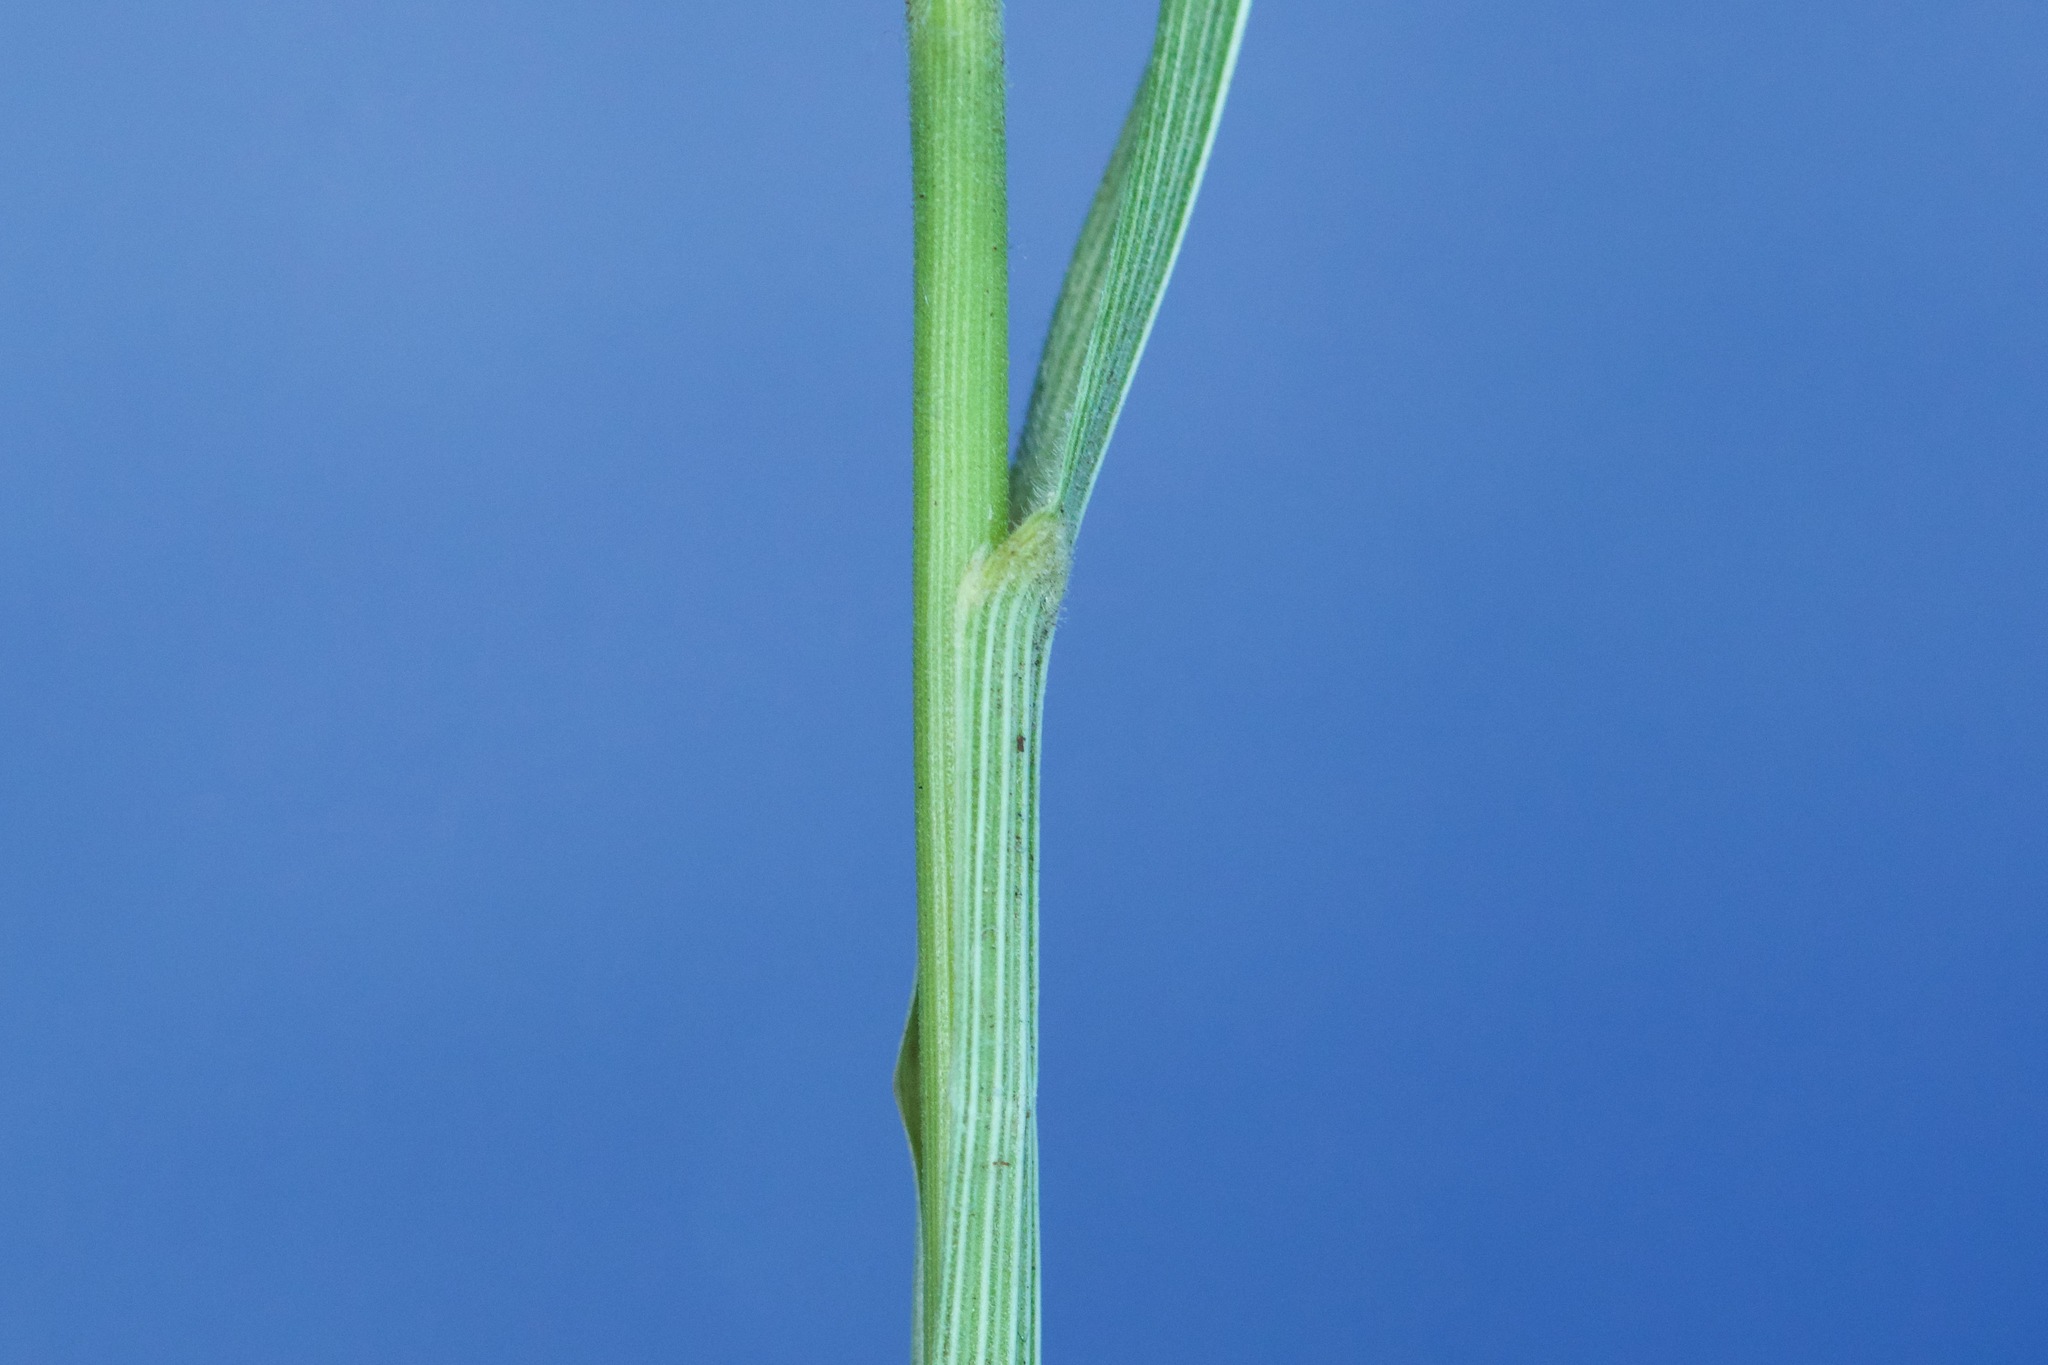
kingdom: Plantae
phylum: Tracheophyta
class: Liliopsida
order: Poales
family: Poaceae
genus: Patis
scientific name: Patis racemosa
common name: Black-fruited mountain rice
